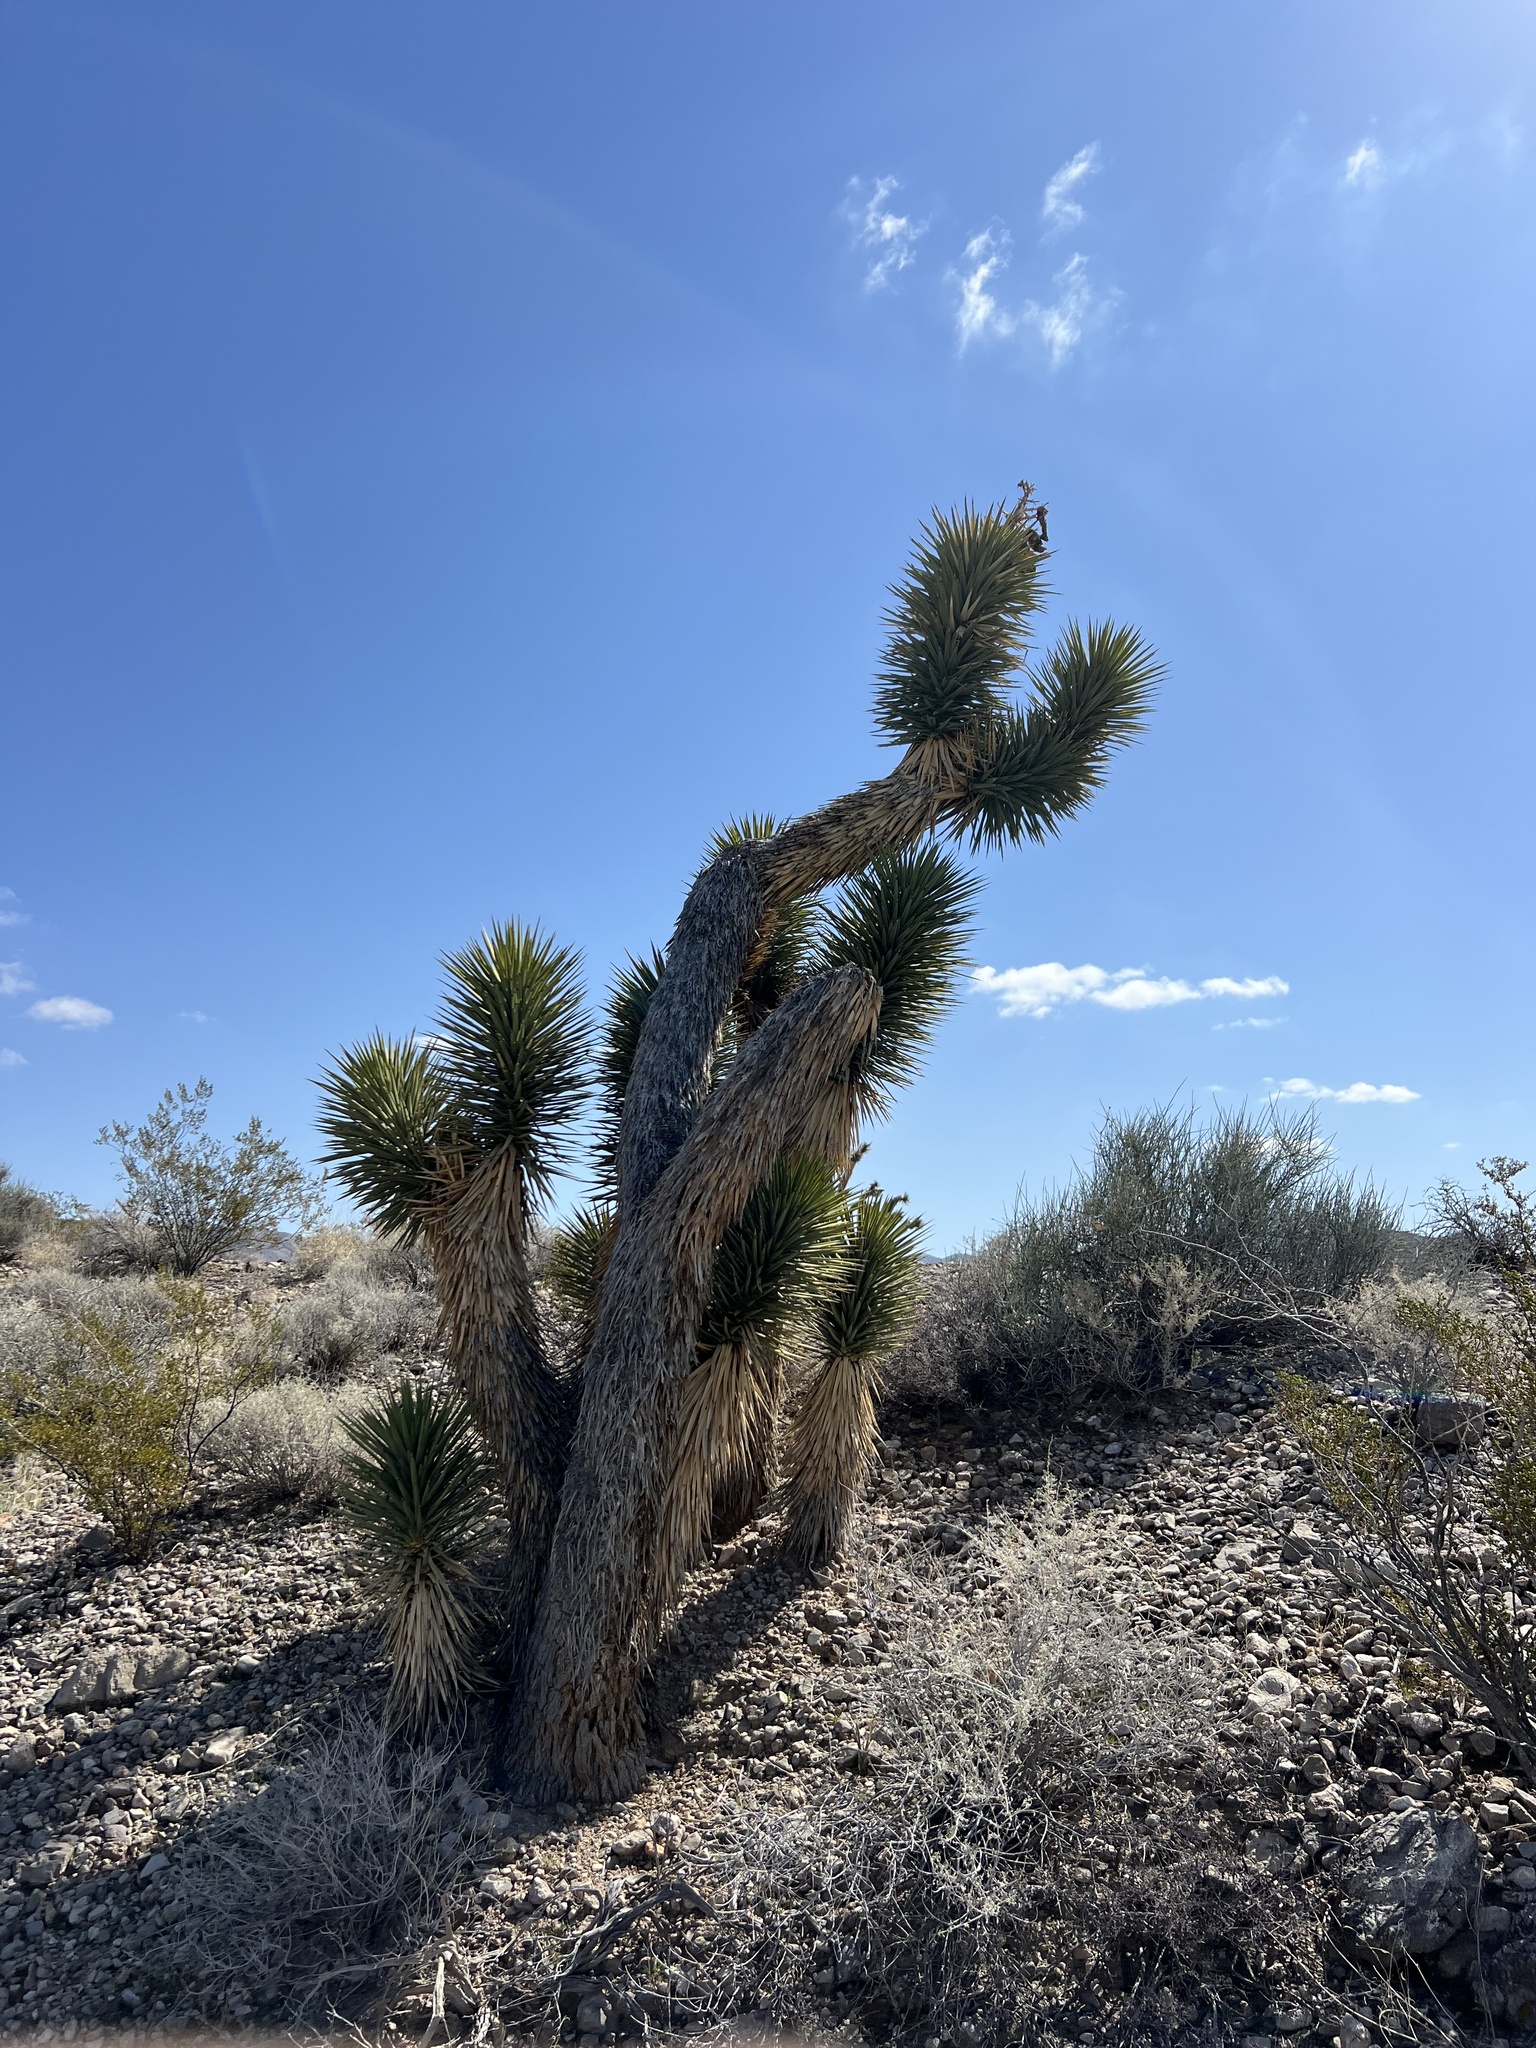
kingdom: Plantae
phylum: Tracheophyta
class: Liliopsida
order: Asparagales
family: Asparagaceae
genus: Yucca
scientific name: Yucca brevifolia
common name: Joshua tree
